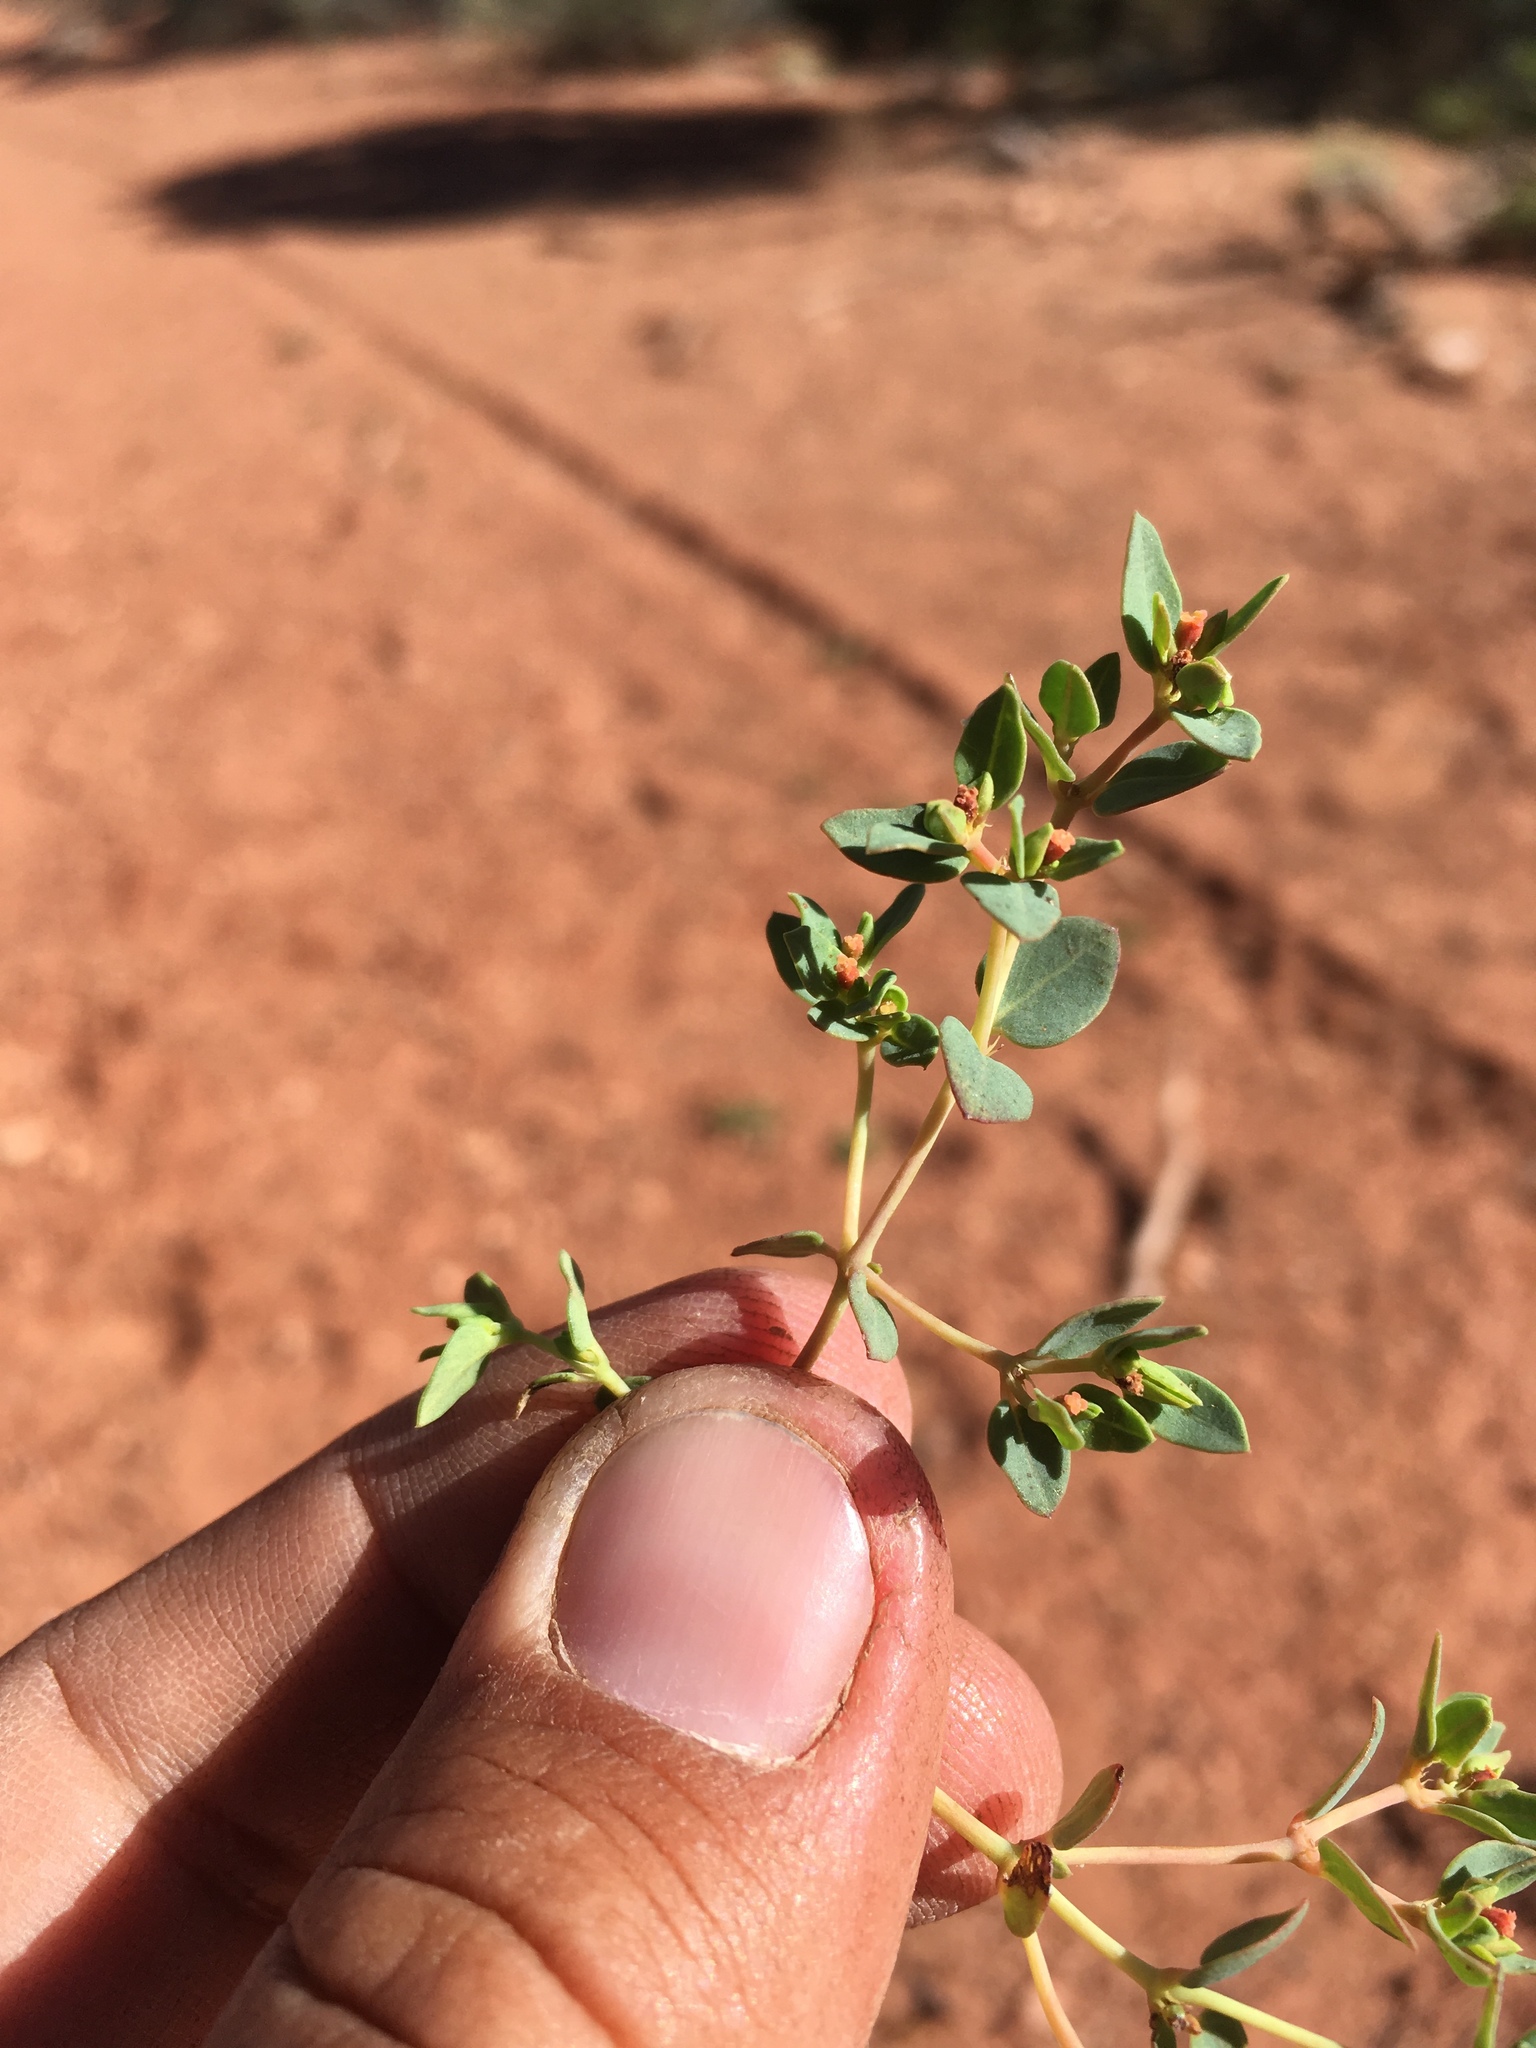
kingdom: Plantae
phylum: Tracheophyta
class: Magnoliopsida
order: Malpighiales
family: Euphorbiaceae
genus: Euphorbia
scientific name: Euphorbia fendleri
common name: Fendler's euphorbia
